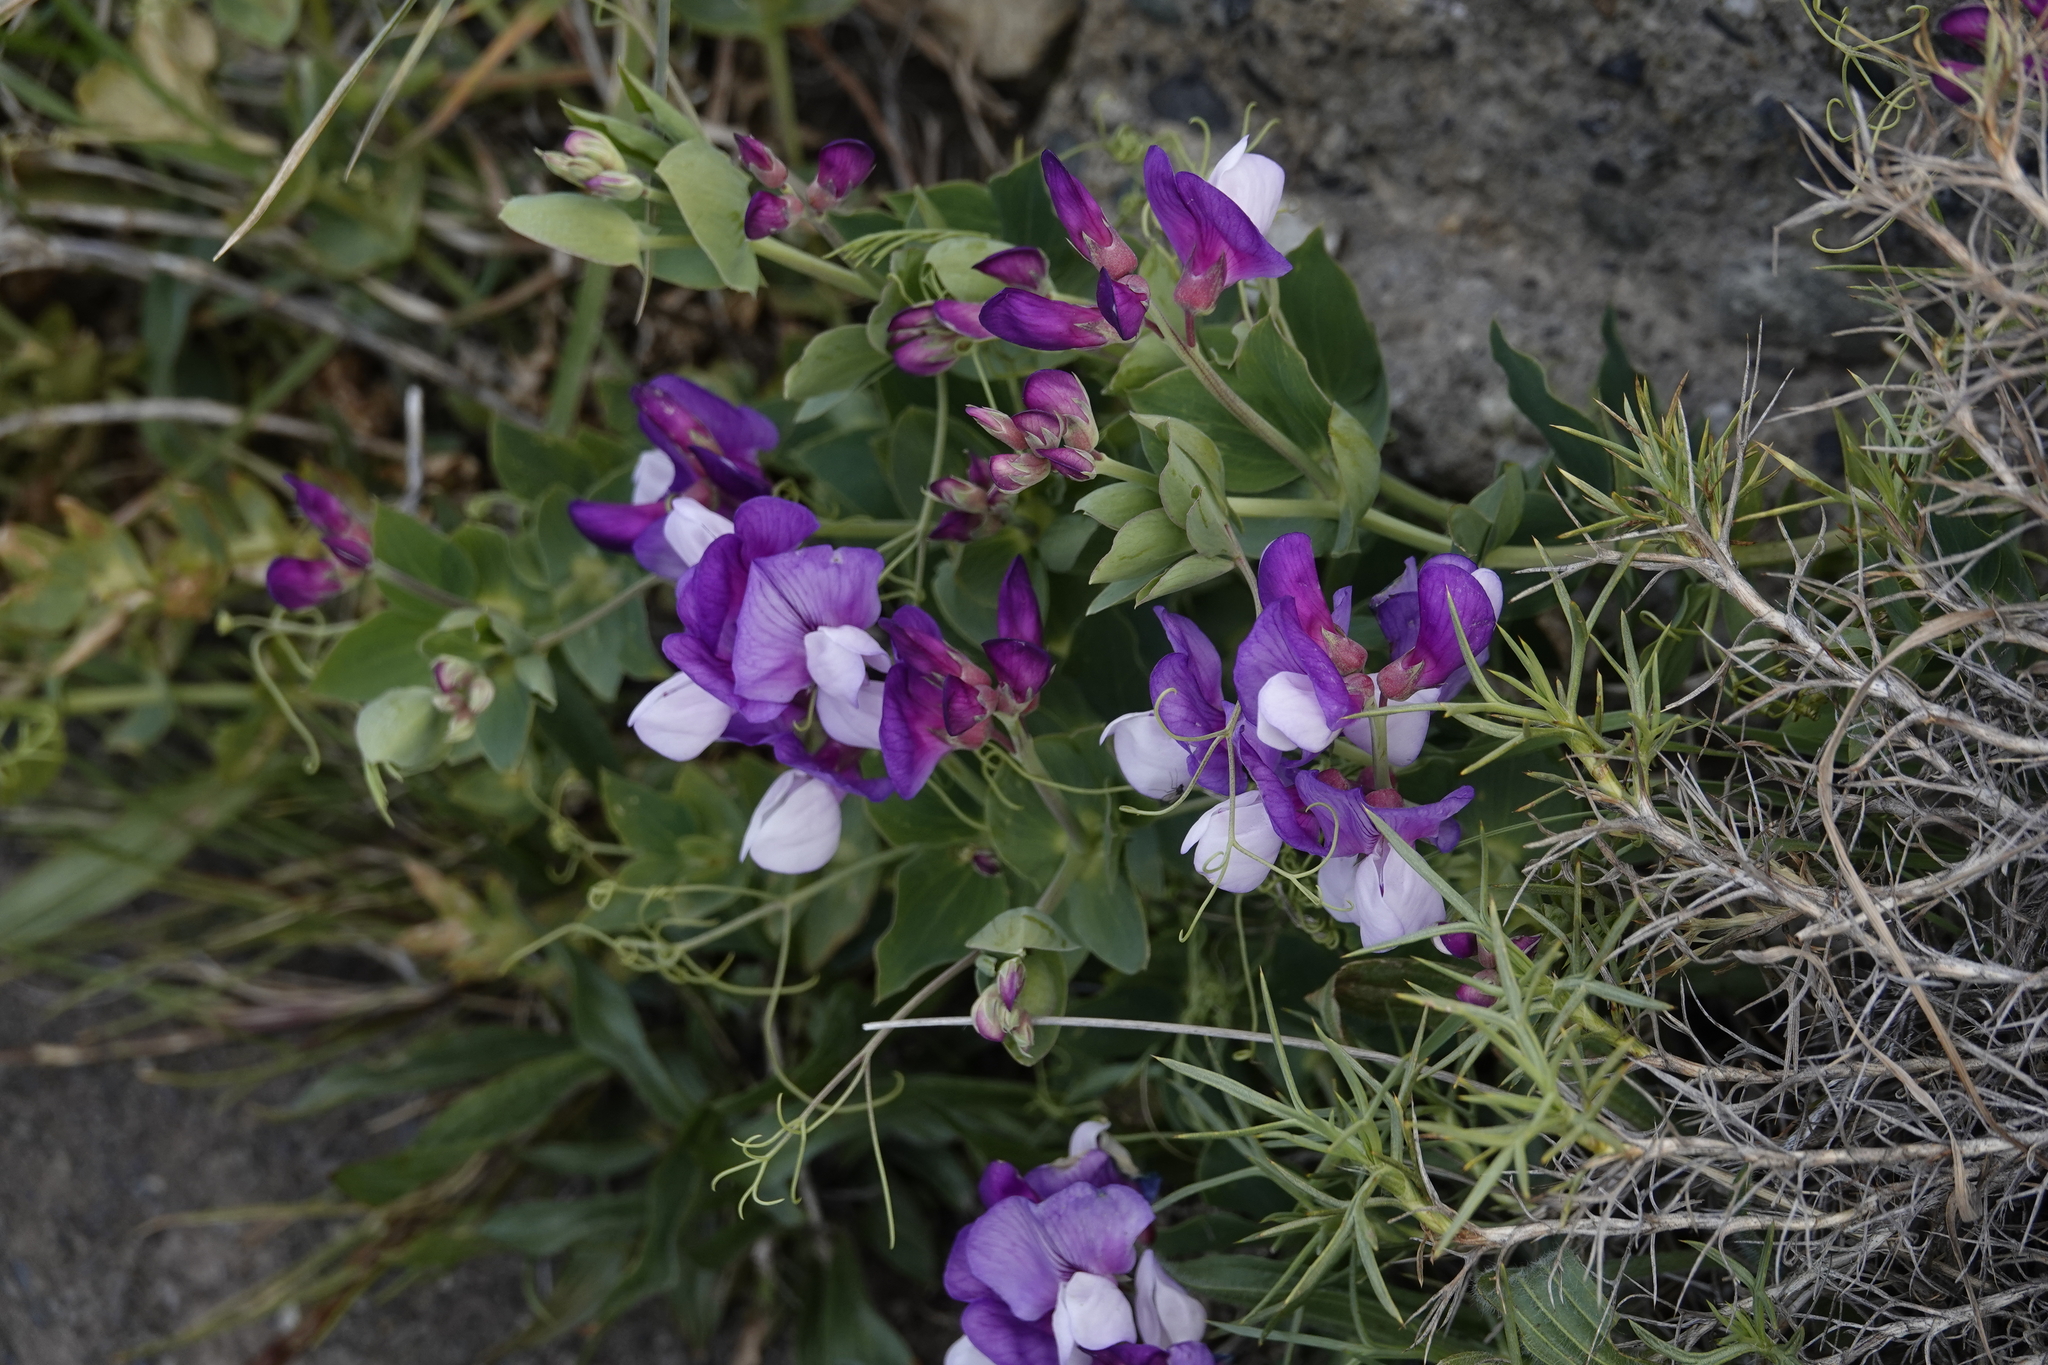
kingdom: Plantae
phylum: Tracheophyta
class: Magnoliopsida
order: Fabales
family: Fabaceae
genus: Lathyrus
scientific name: Lathyrus magellanicus
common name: Lord anson's pea
